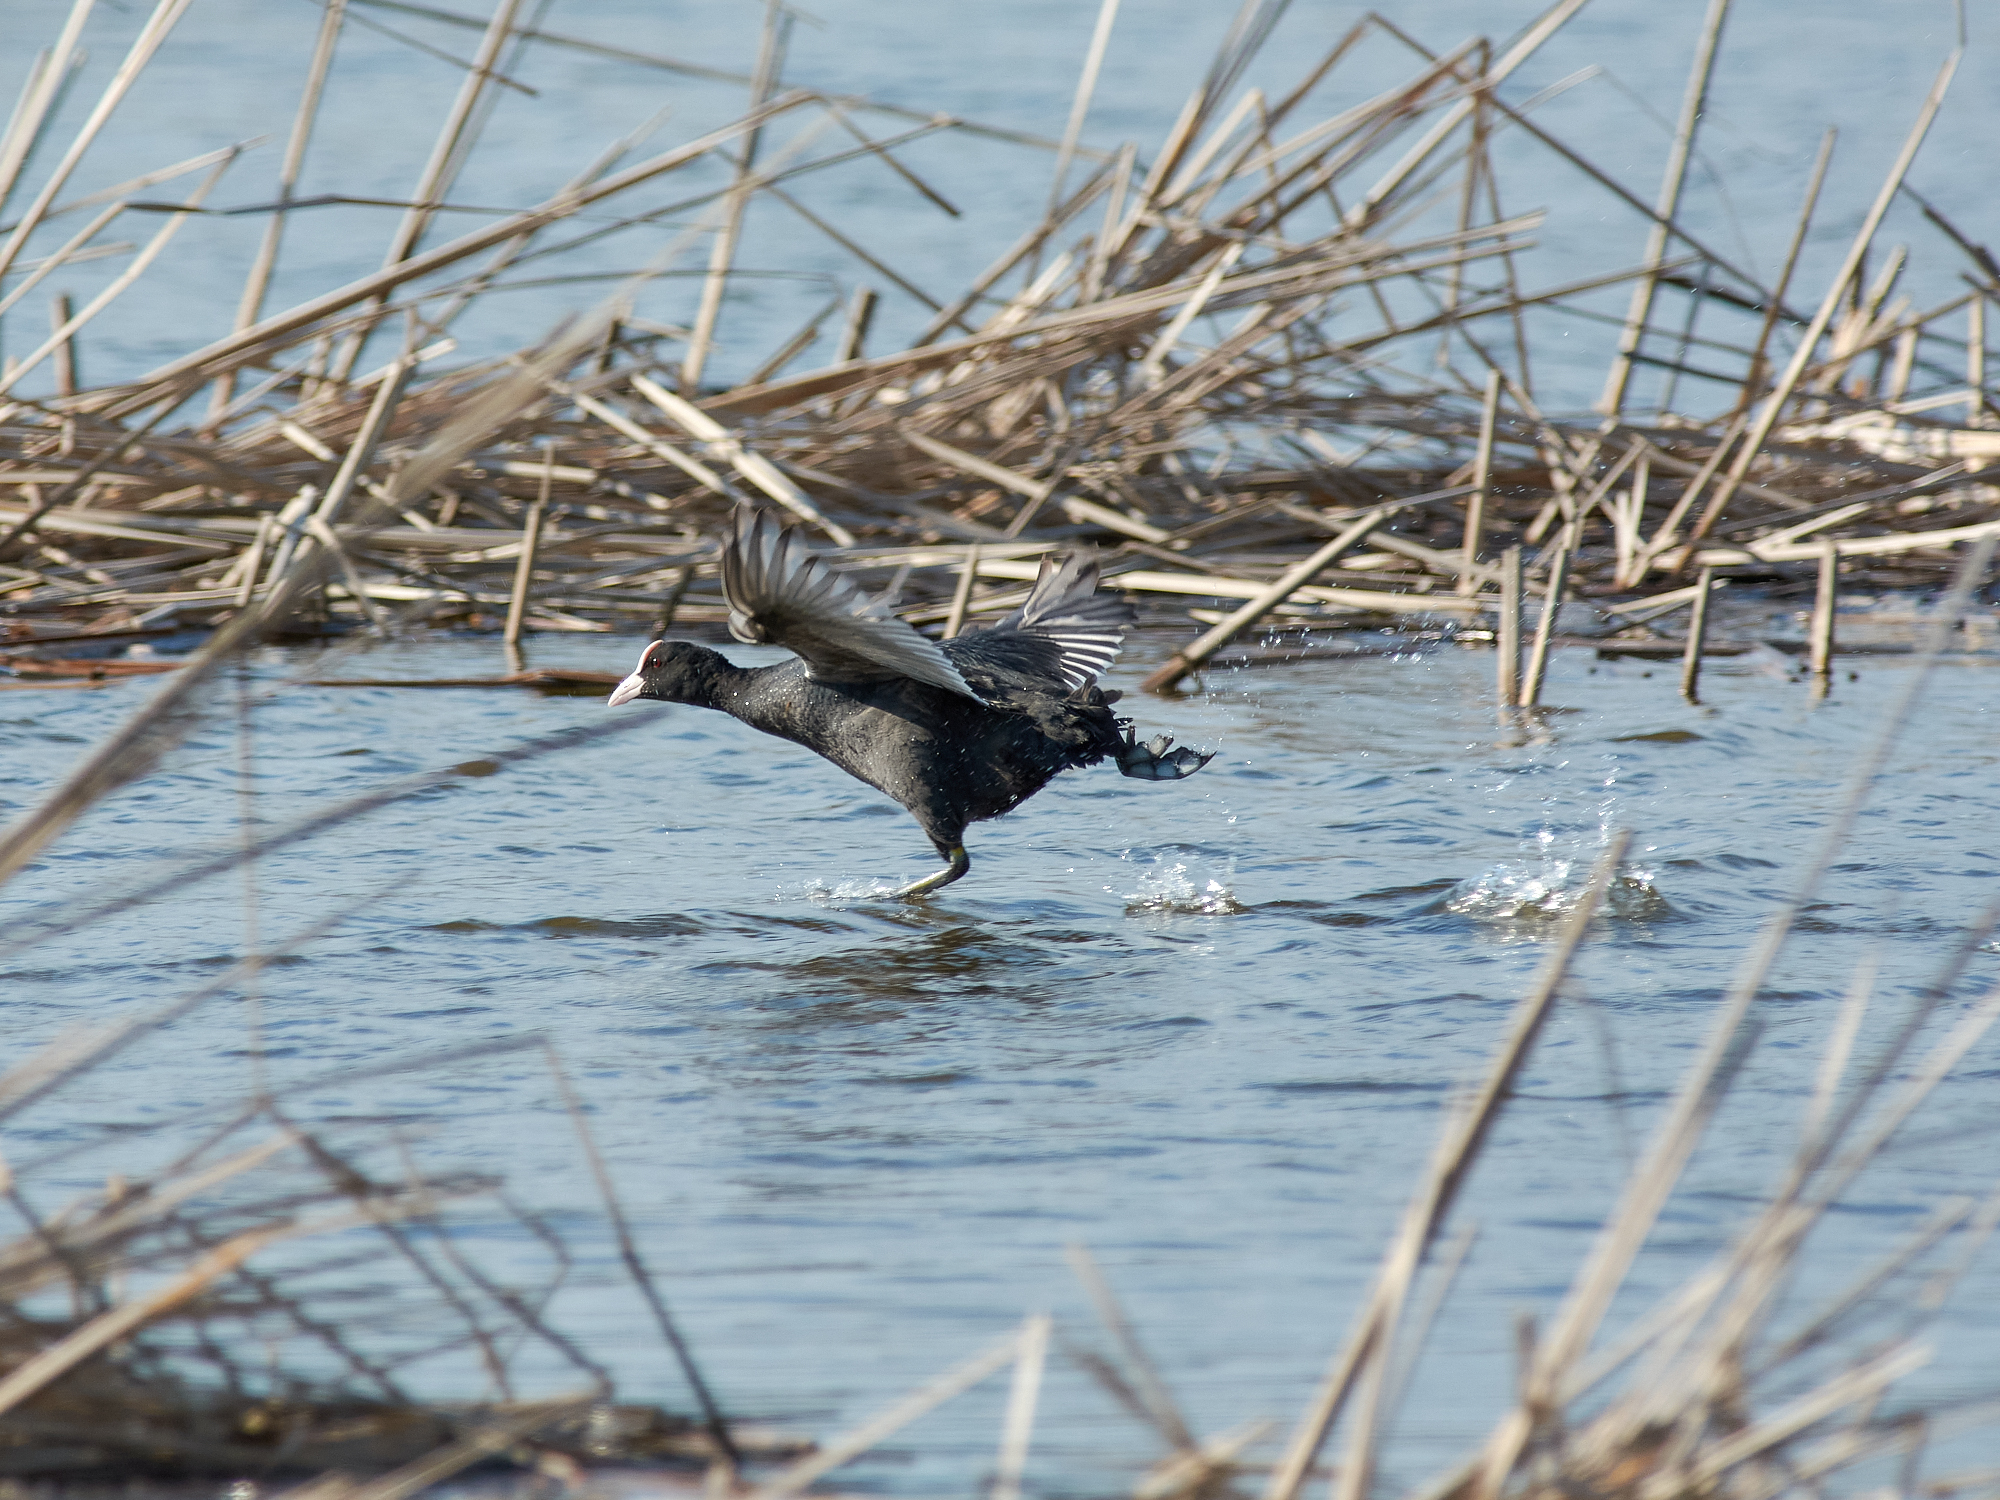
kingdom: Animalia
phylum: Chordata
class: Aves
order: Gruiformes
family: Rallidae
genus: Fulica
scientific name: Fulica atra
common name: Eurasian coot
